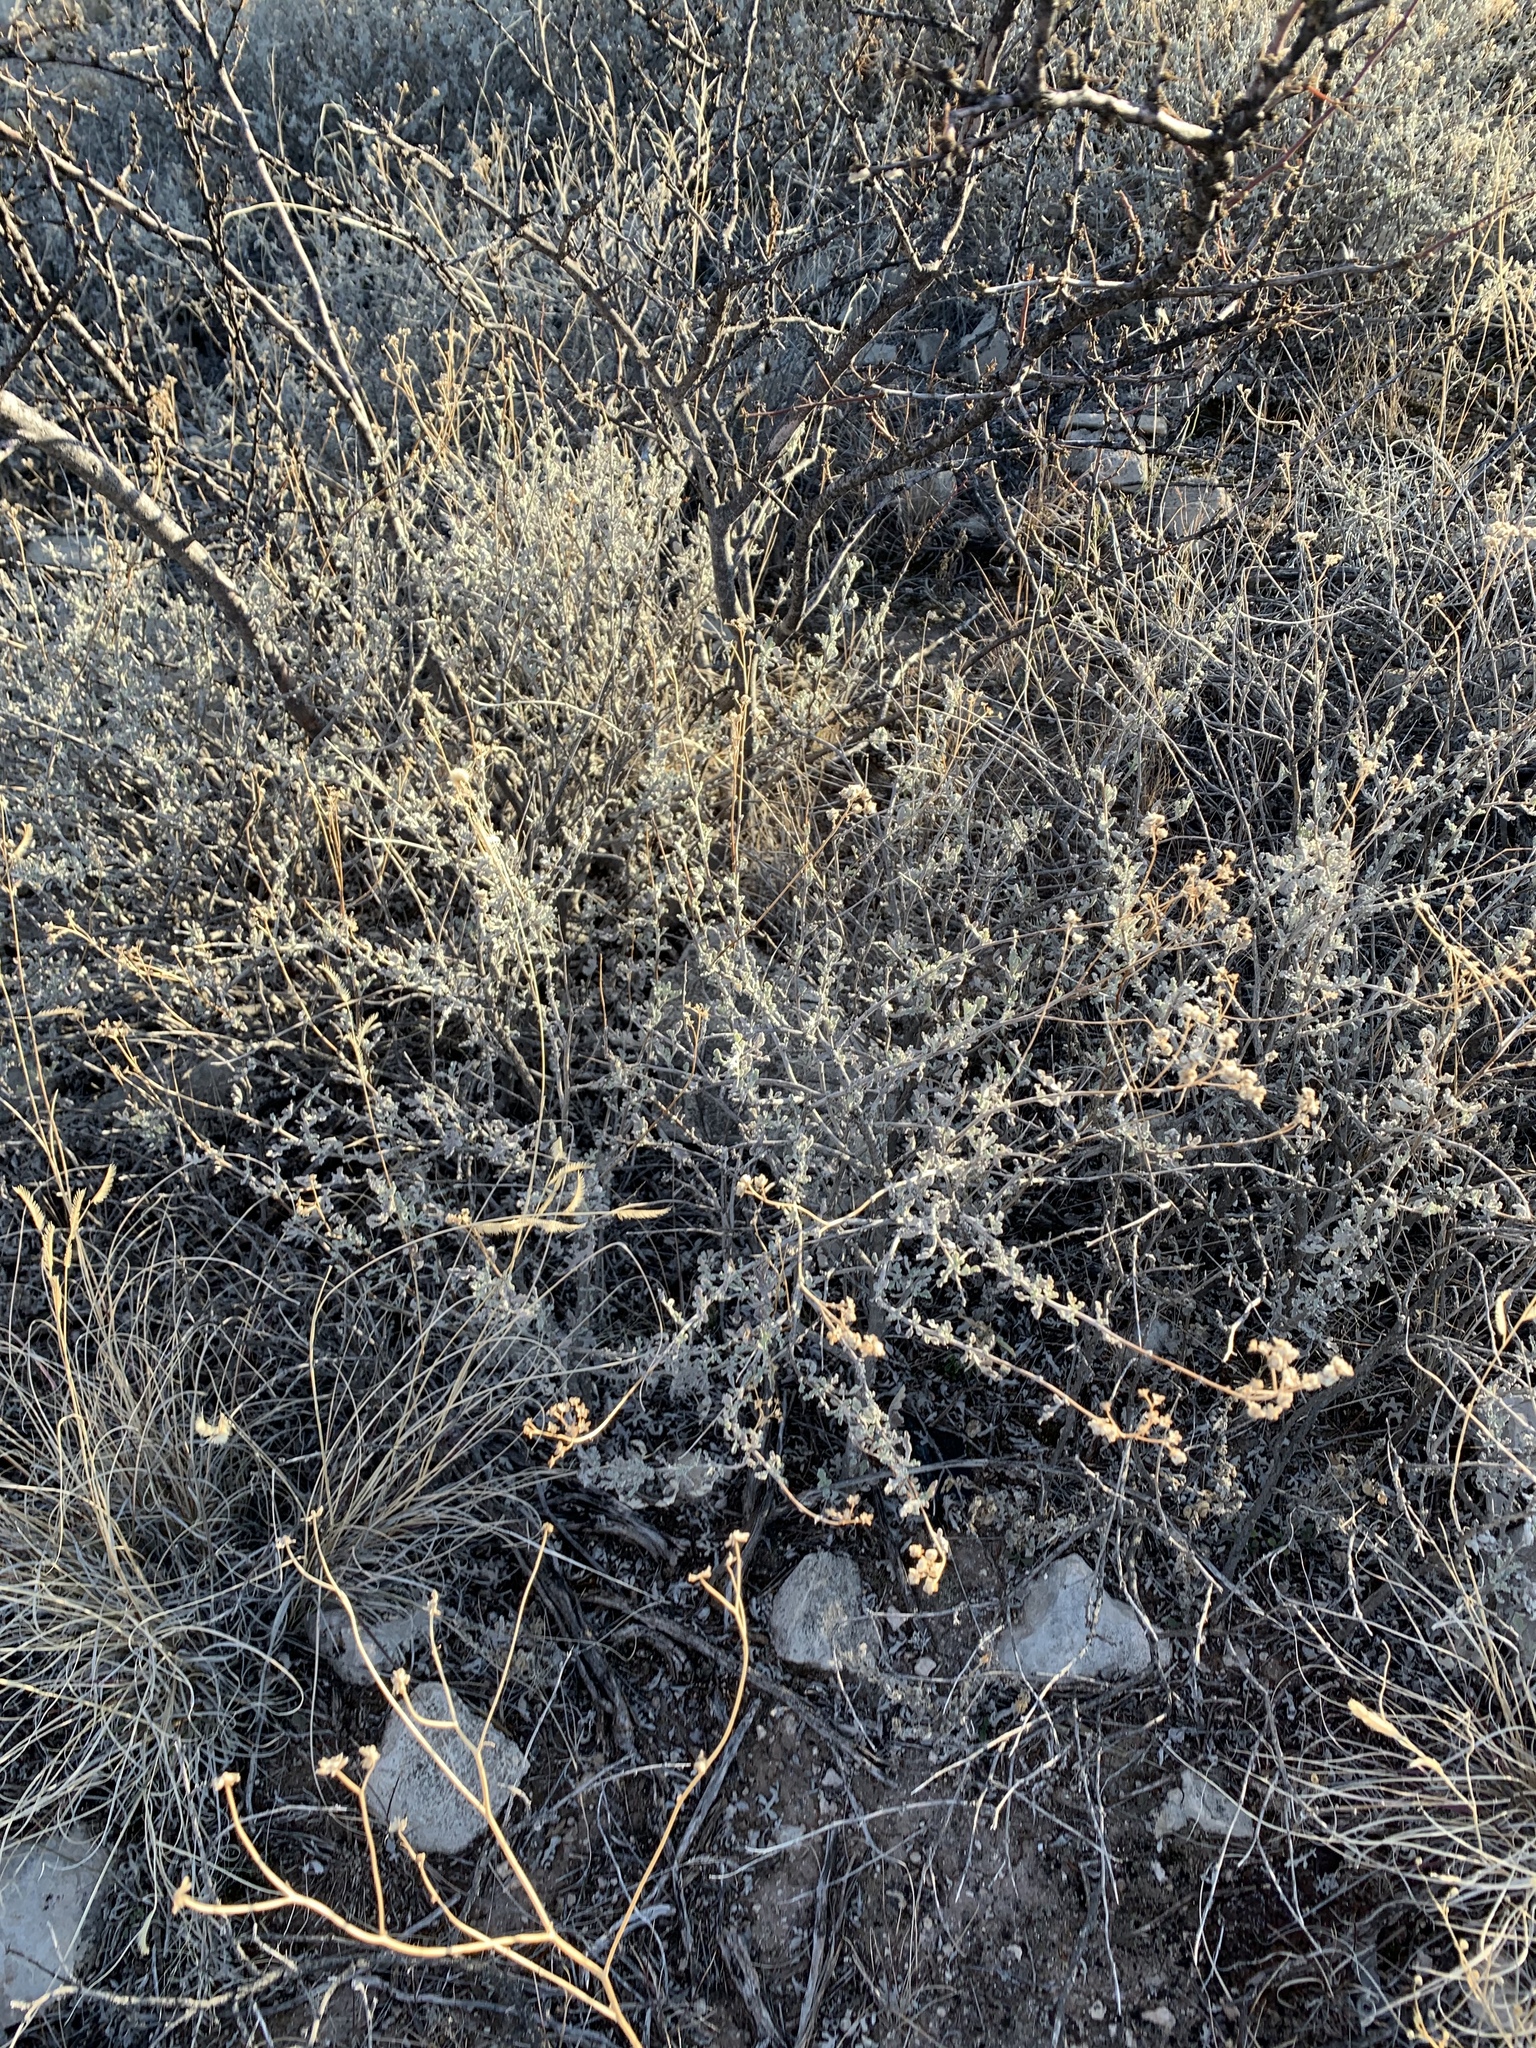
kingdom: Plantae
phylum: Tracheophyta
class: Magnoliopsida
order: Asterales
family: Asteraceae
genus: Parthenium
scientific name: Parthenium incanum
